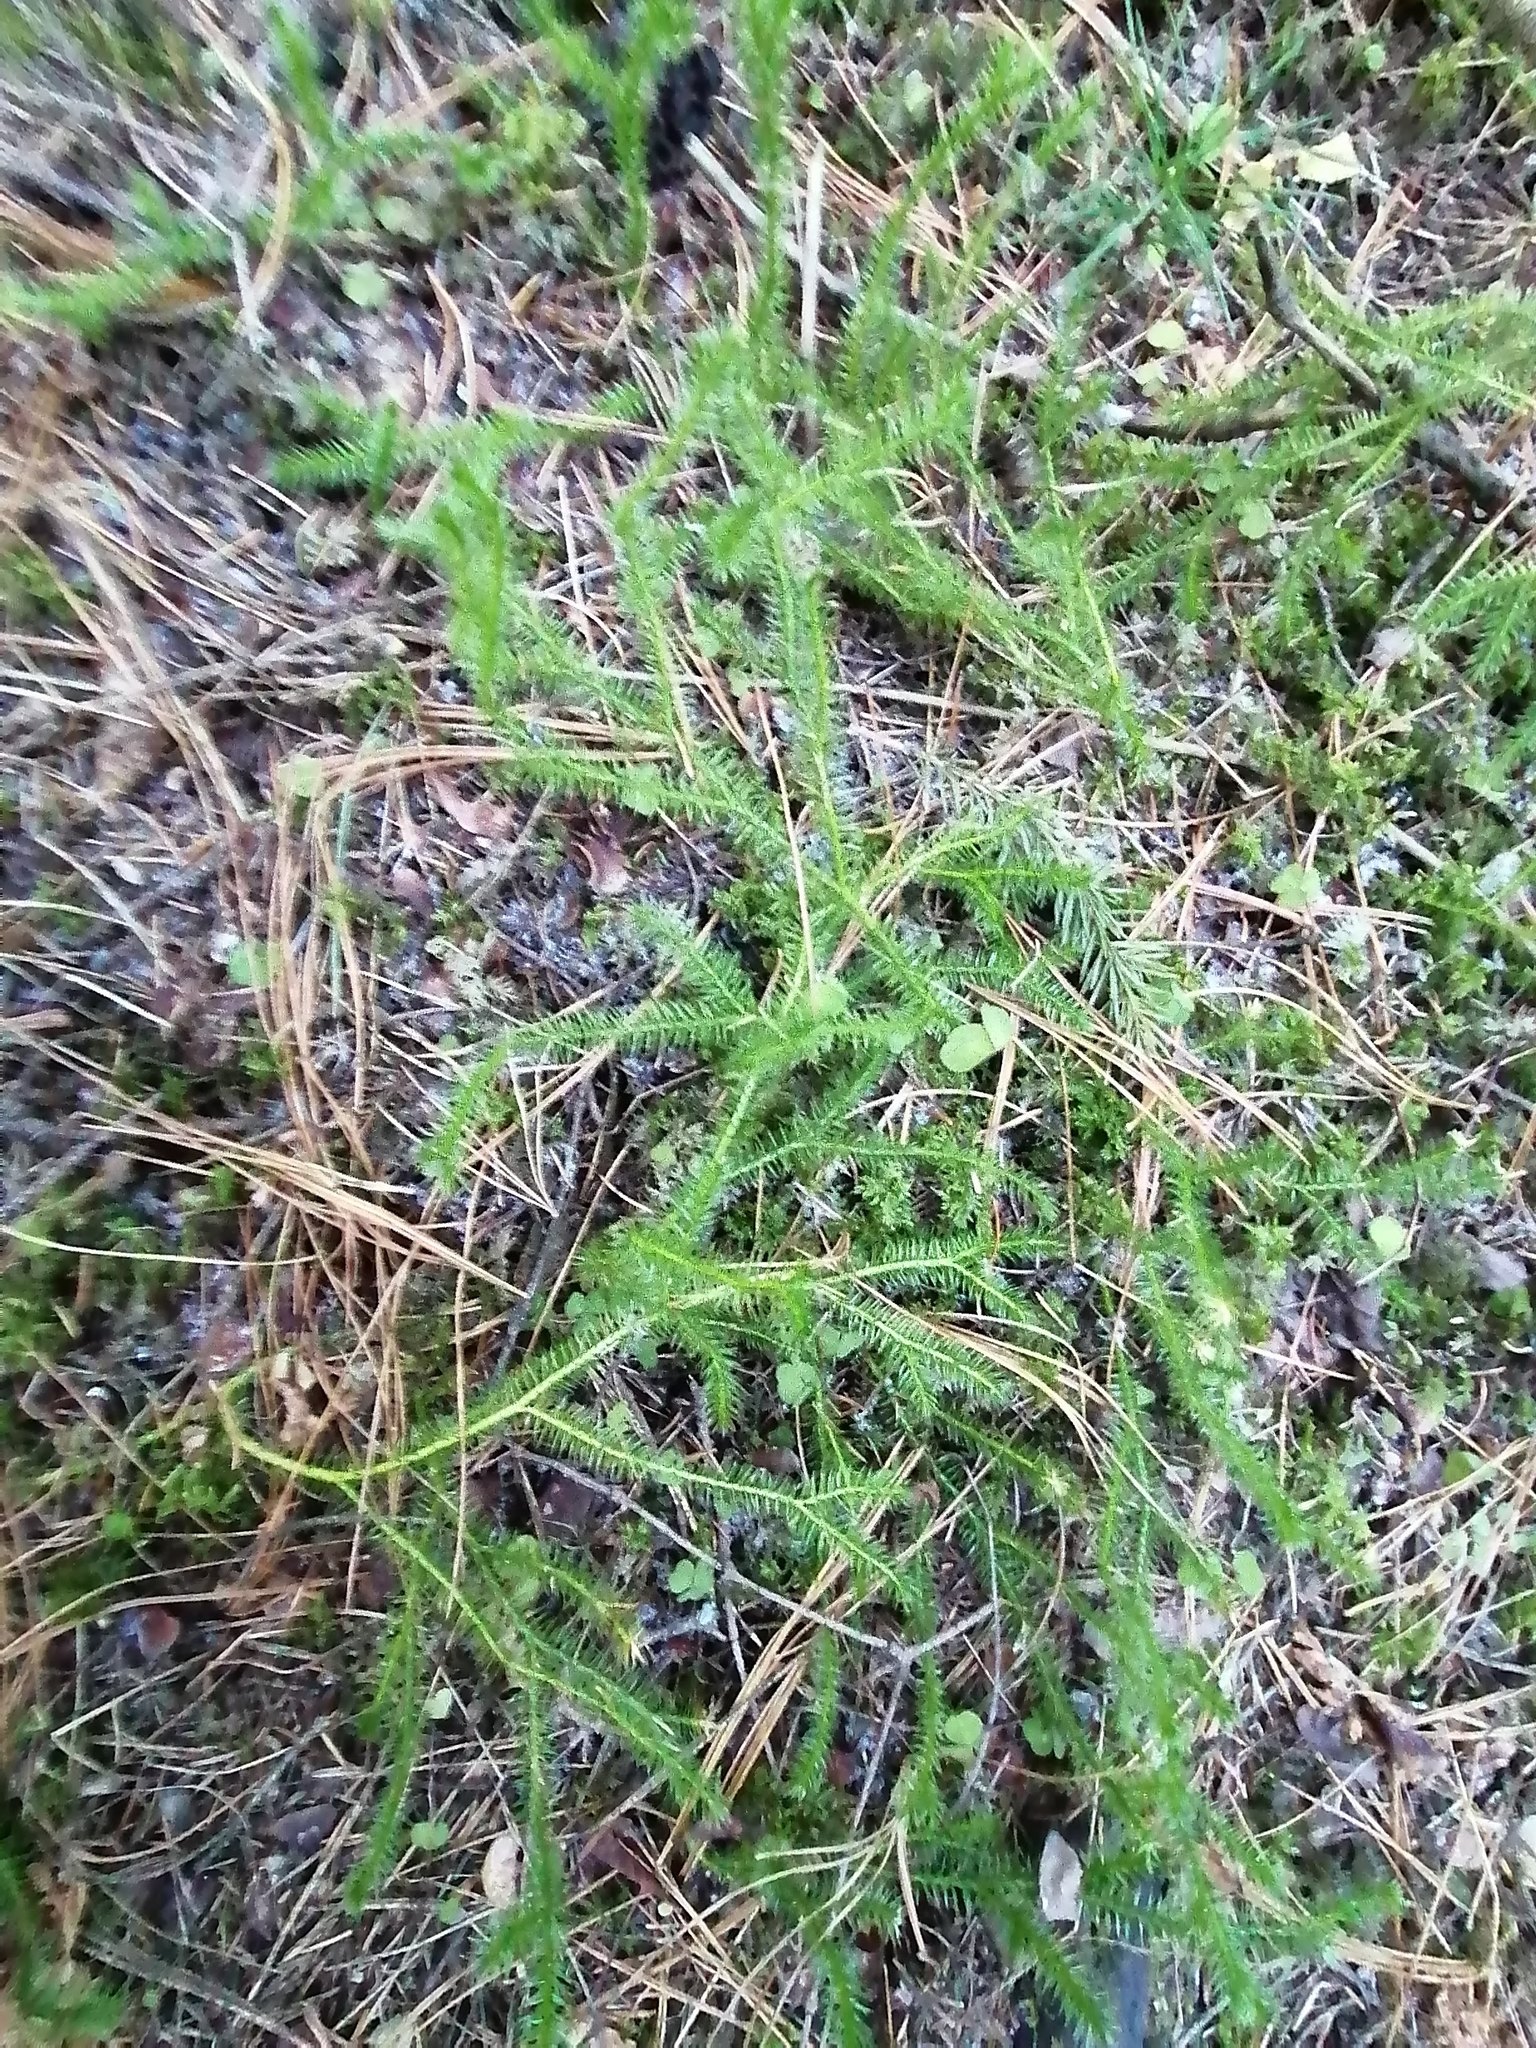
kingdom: Plantae
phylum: Tracheophyta
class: Lycopodiopsida
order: Lycopodiales
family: Lycopodiaceae
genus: Lycopodium
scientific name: Lycopodium clavatum
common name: Stag's-horn clubmoss
